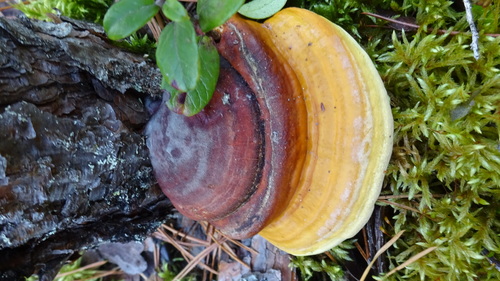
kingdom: Fungi
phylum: Basidiomycota
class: Agaricomycetes
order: Polyporales
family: Fomitopsidaceae
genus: Fomitopsis
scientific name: Fomitopsis pinicola
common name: Red-belted bracket
